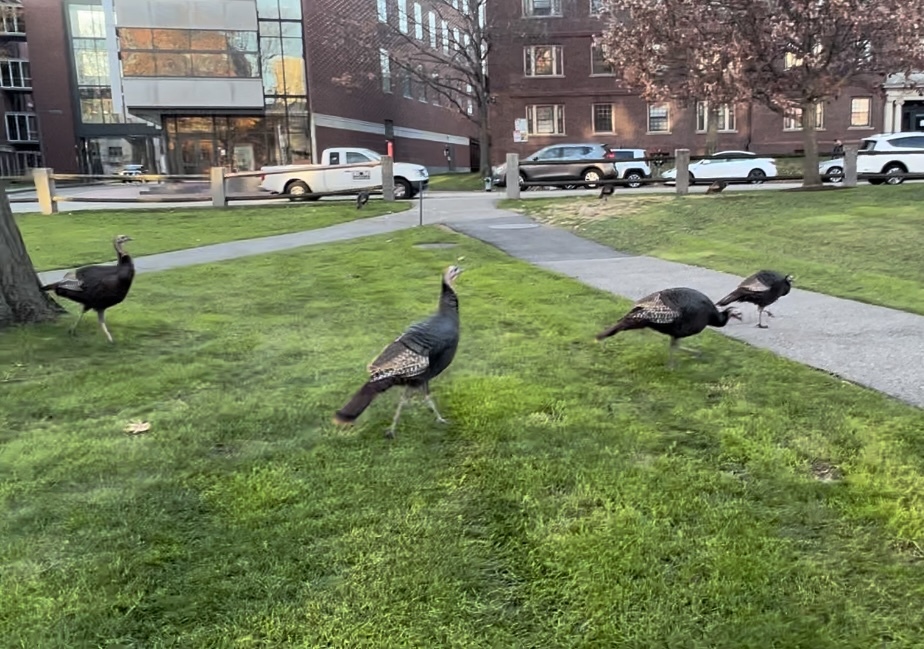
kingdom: Animalia
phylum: Chordata
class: Aves
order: Galliformes
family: Phasianidae
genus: Meleagris
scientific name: Meleagris gallopavo
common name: Wild turkey
